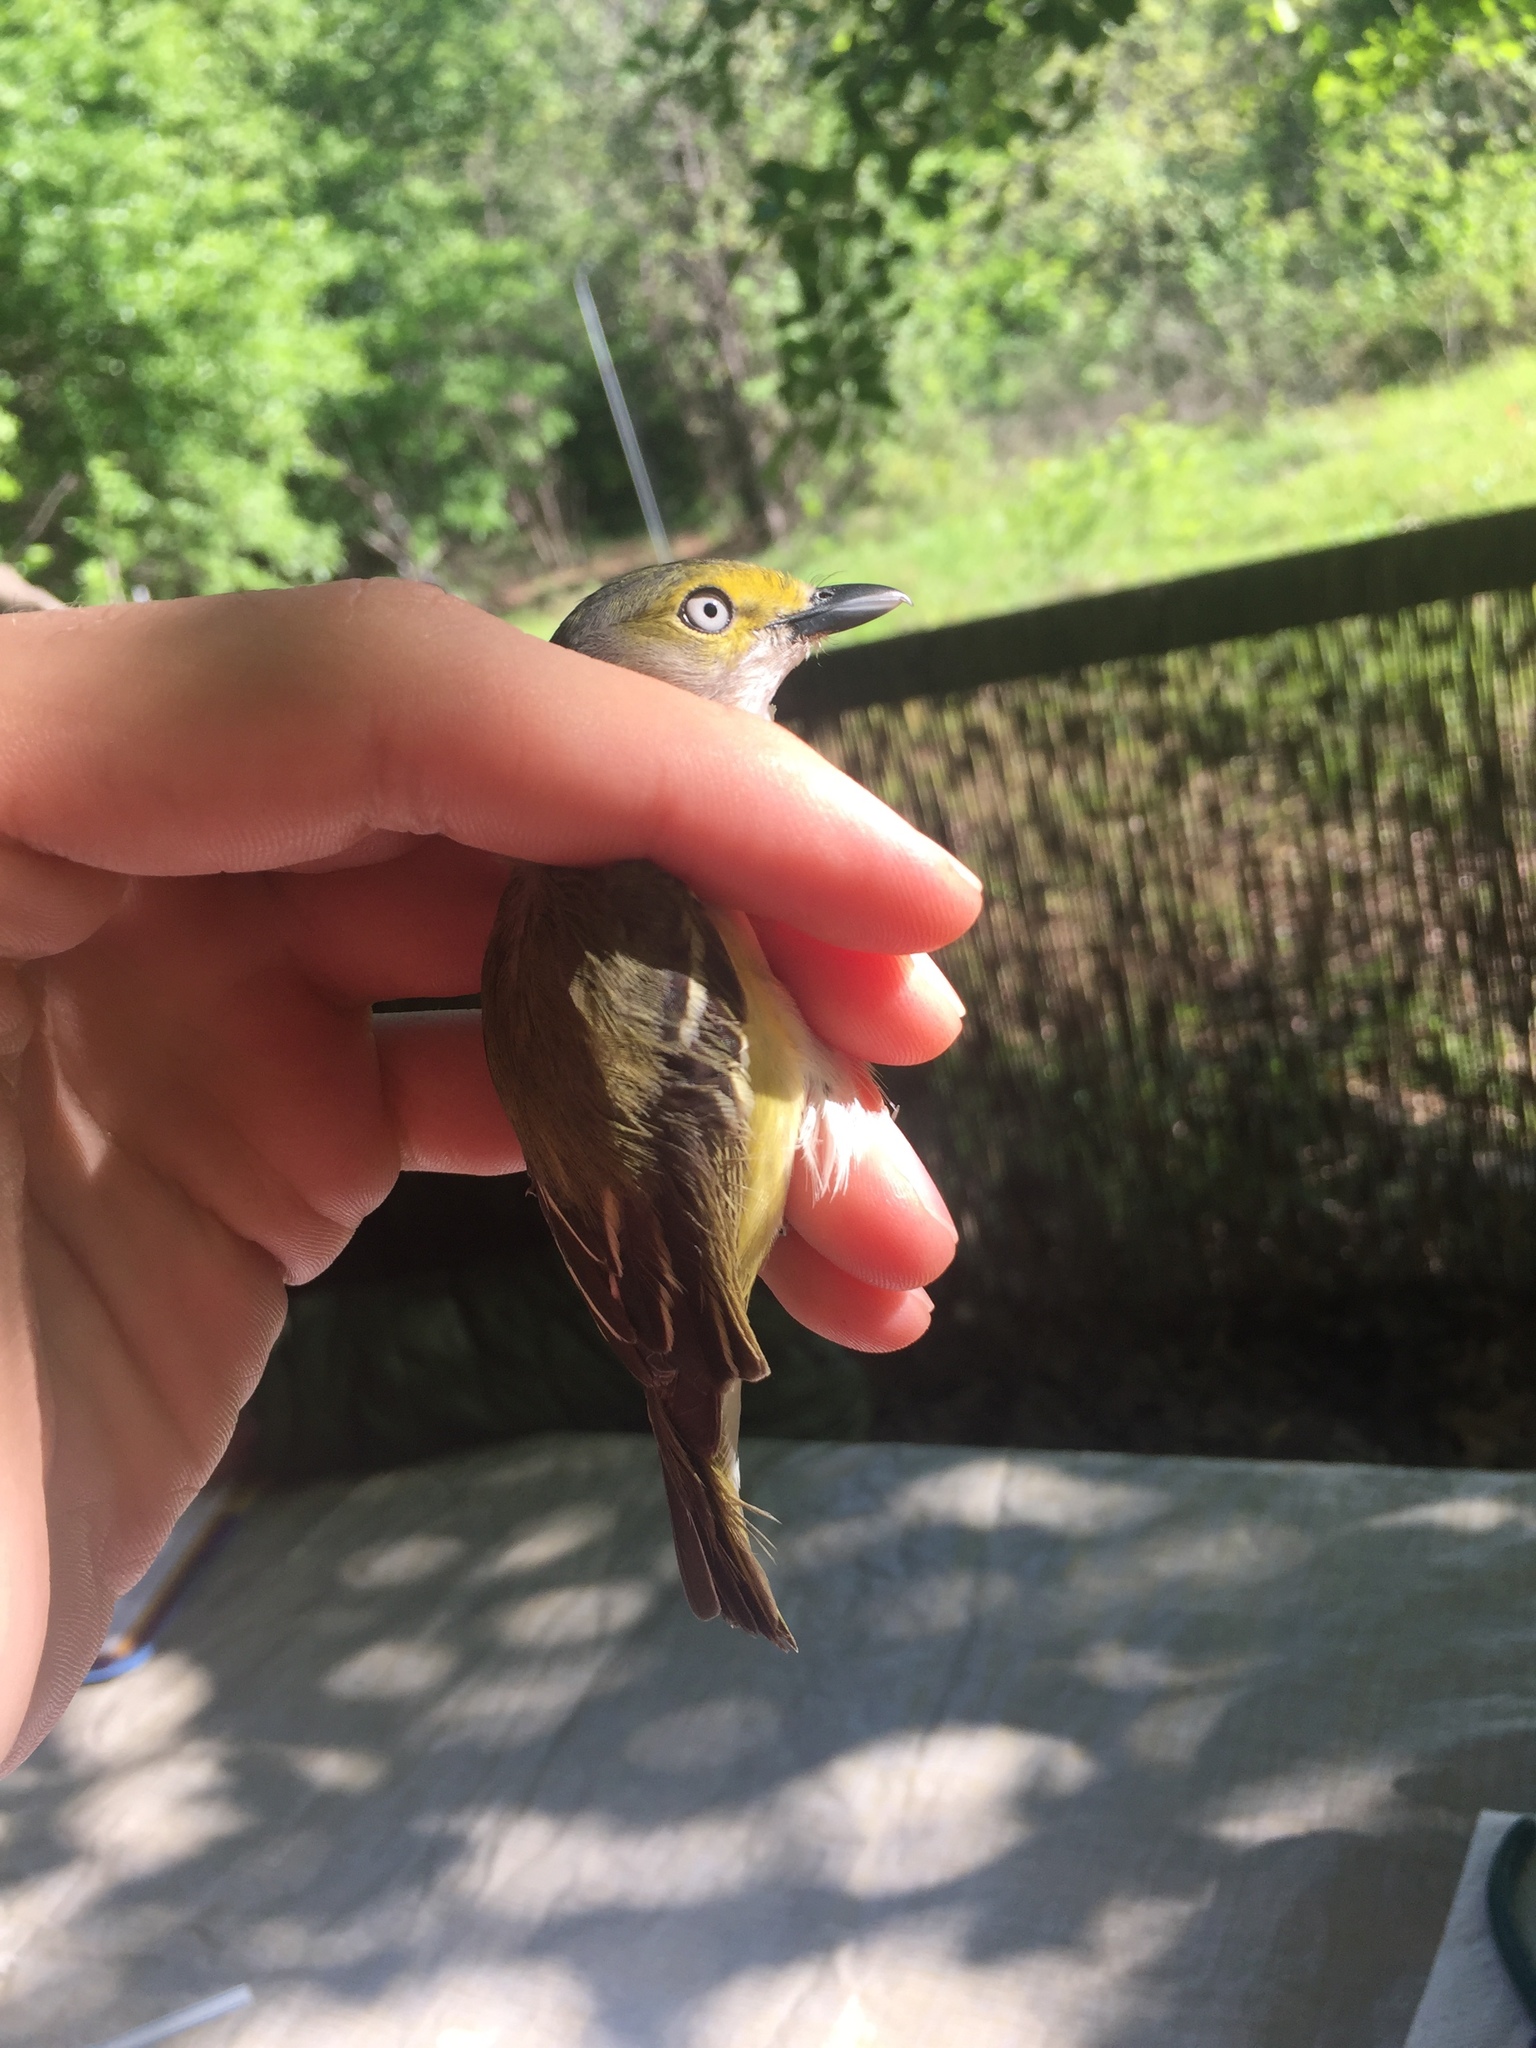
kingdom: Animalia
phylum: Chordata
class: Aves
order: Passeriformes
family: Vireonidae
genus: Vireo
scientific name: Vireo griseus
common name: White-eyed vireo
